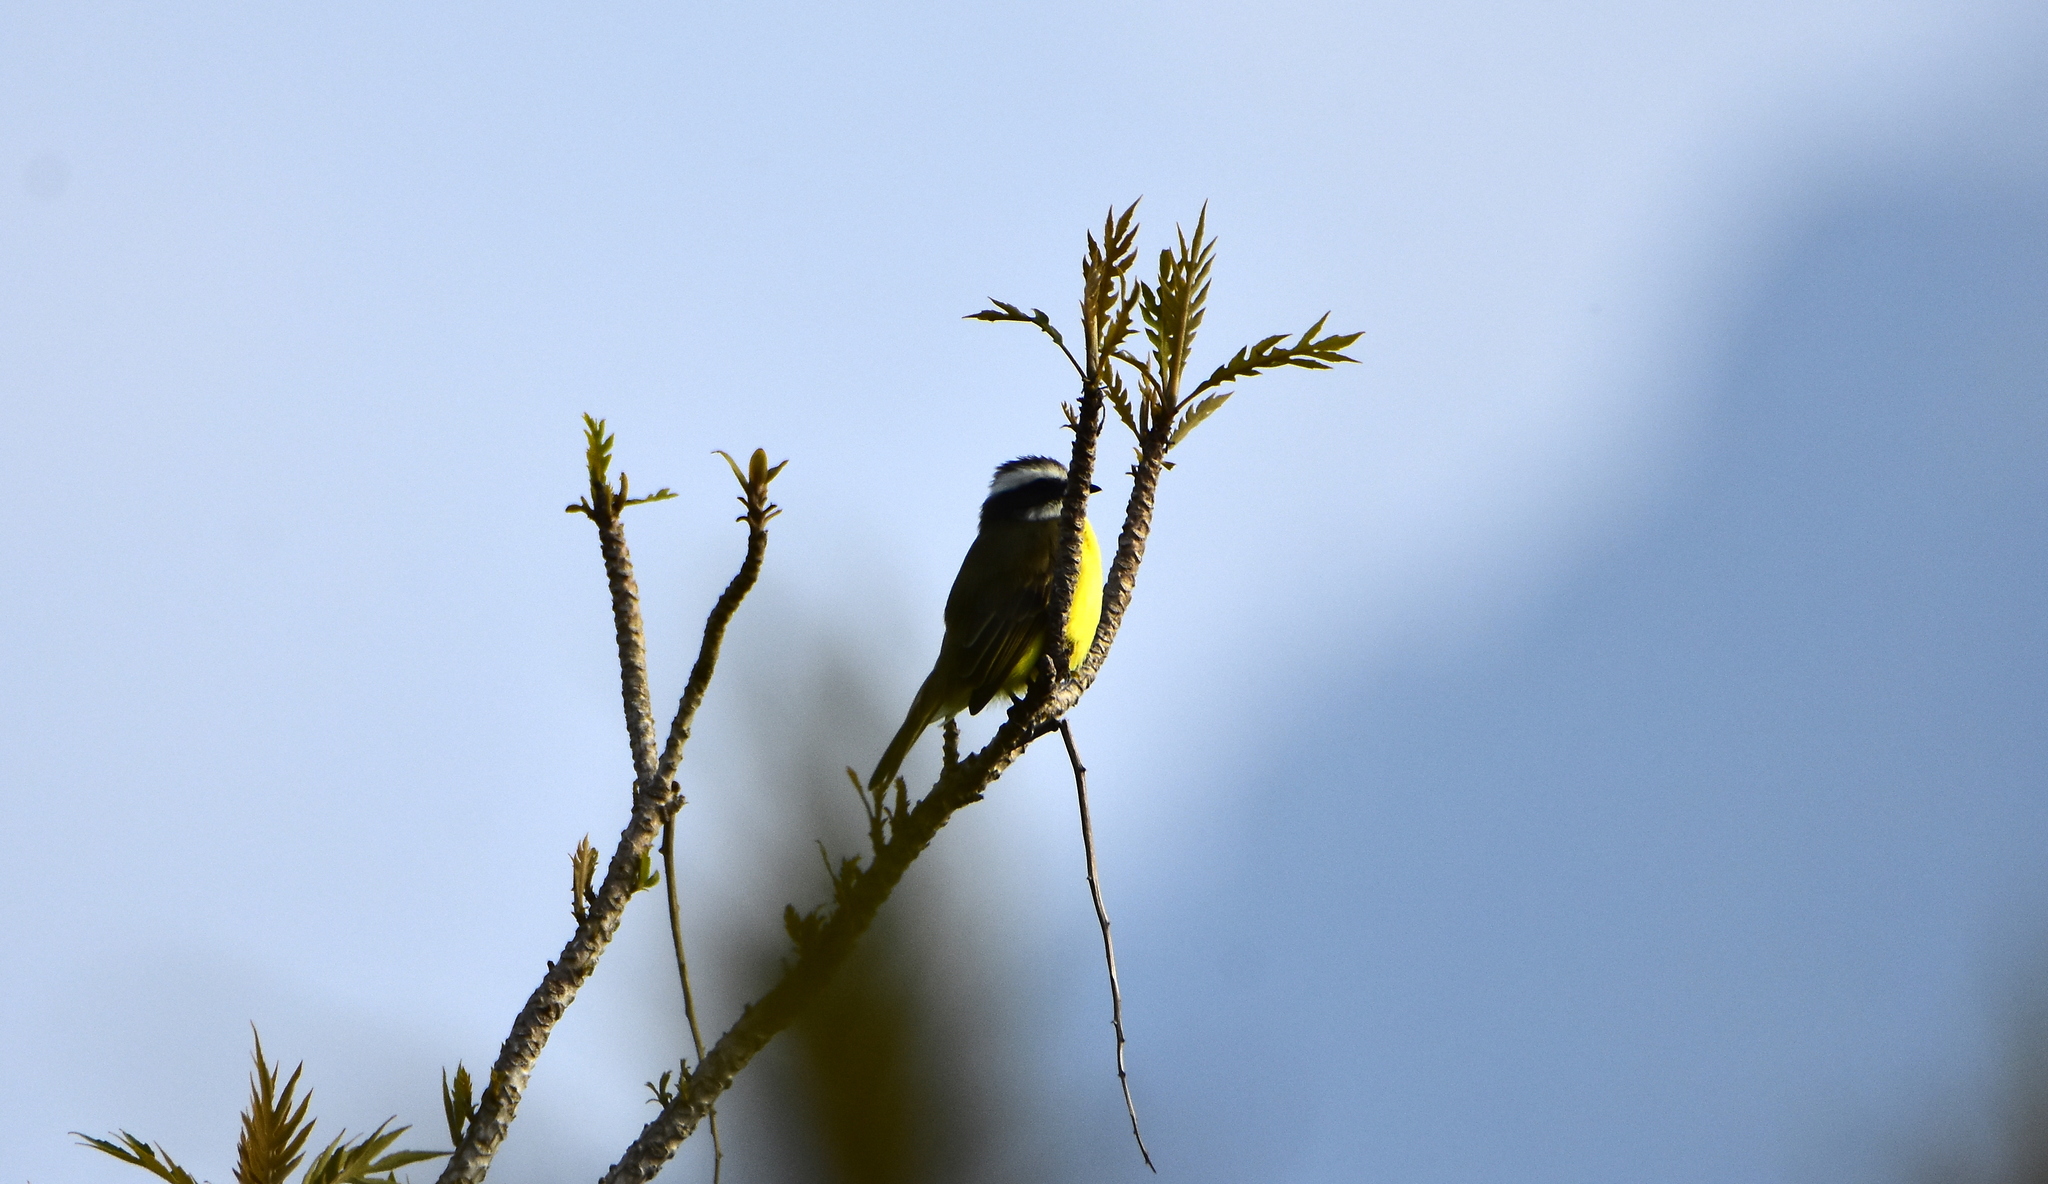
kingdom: Animalia
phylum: Chordata
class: Aves
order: Passeriformes
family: Tyrannidae
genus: Myiozetetes
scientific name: Myiozetetes similis
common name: Social flycatcher
